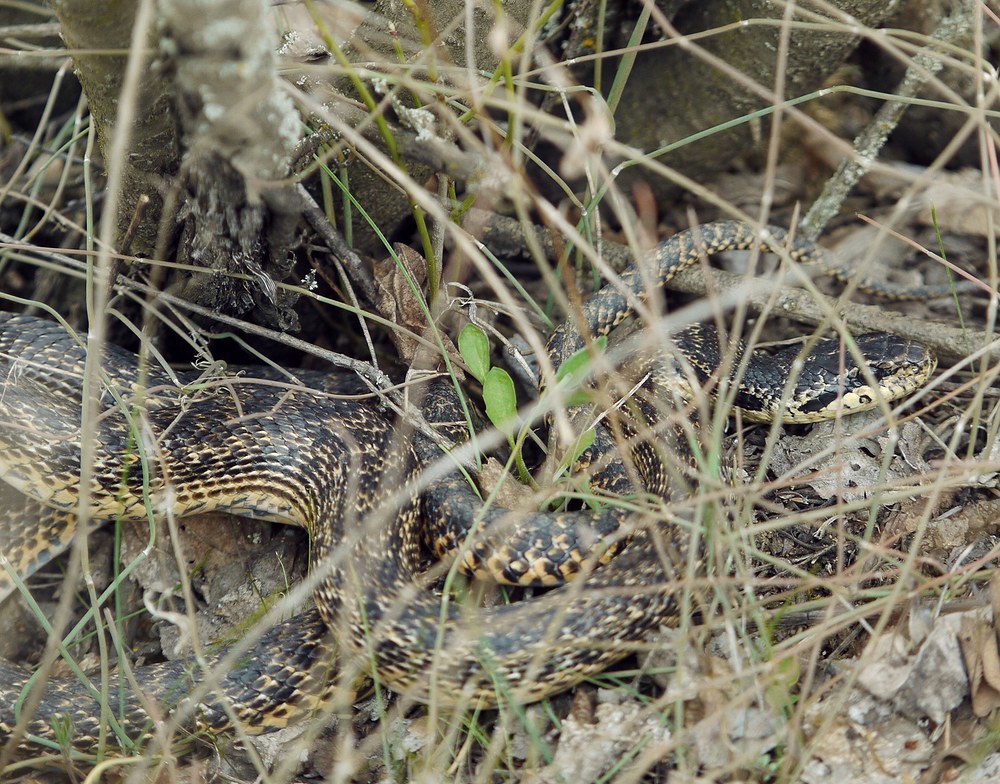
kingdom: Animalia
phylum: Chordata
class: Squamata
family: Colubridae
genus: Elaphe
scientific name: Elaphe sauromates
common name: Eastern four-lined ratsnake
